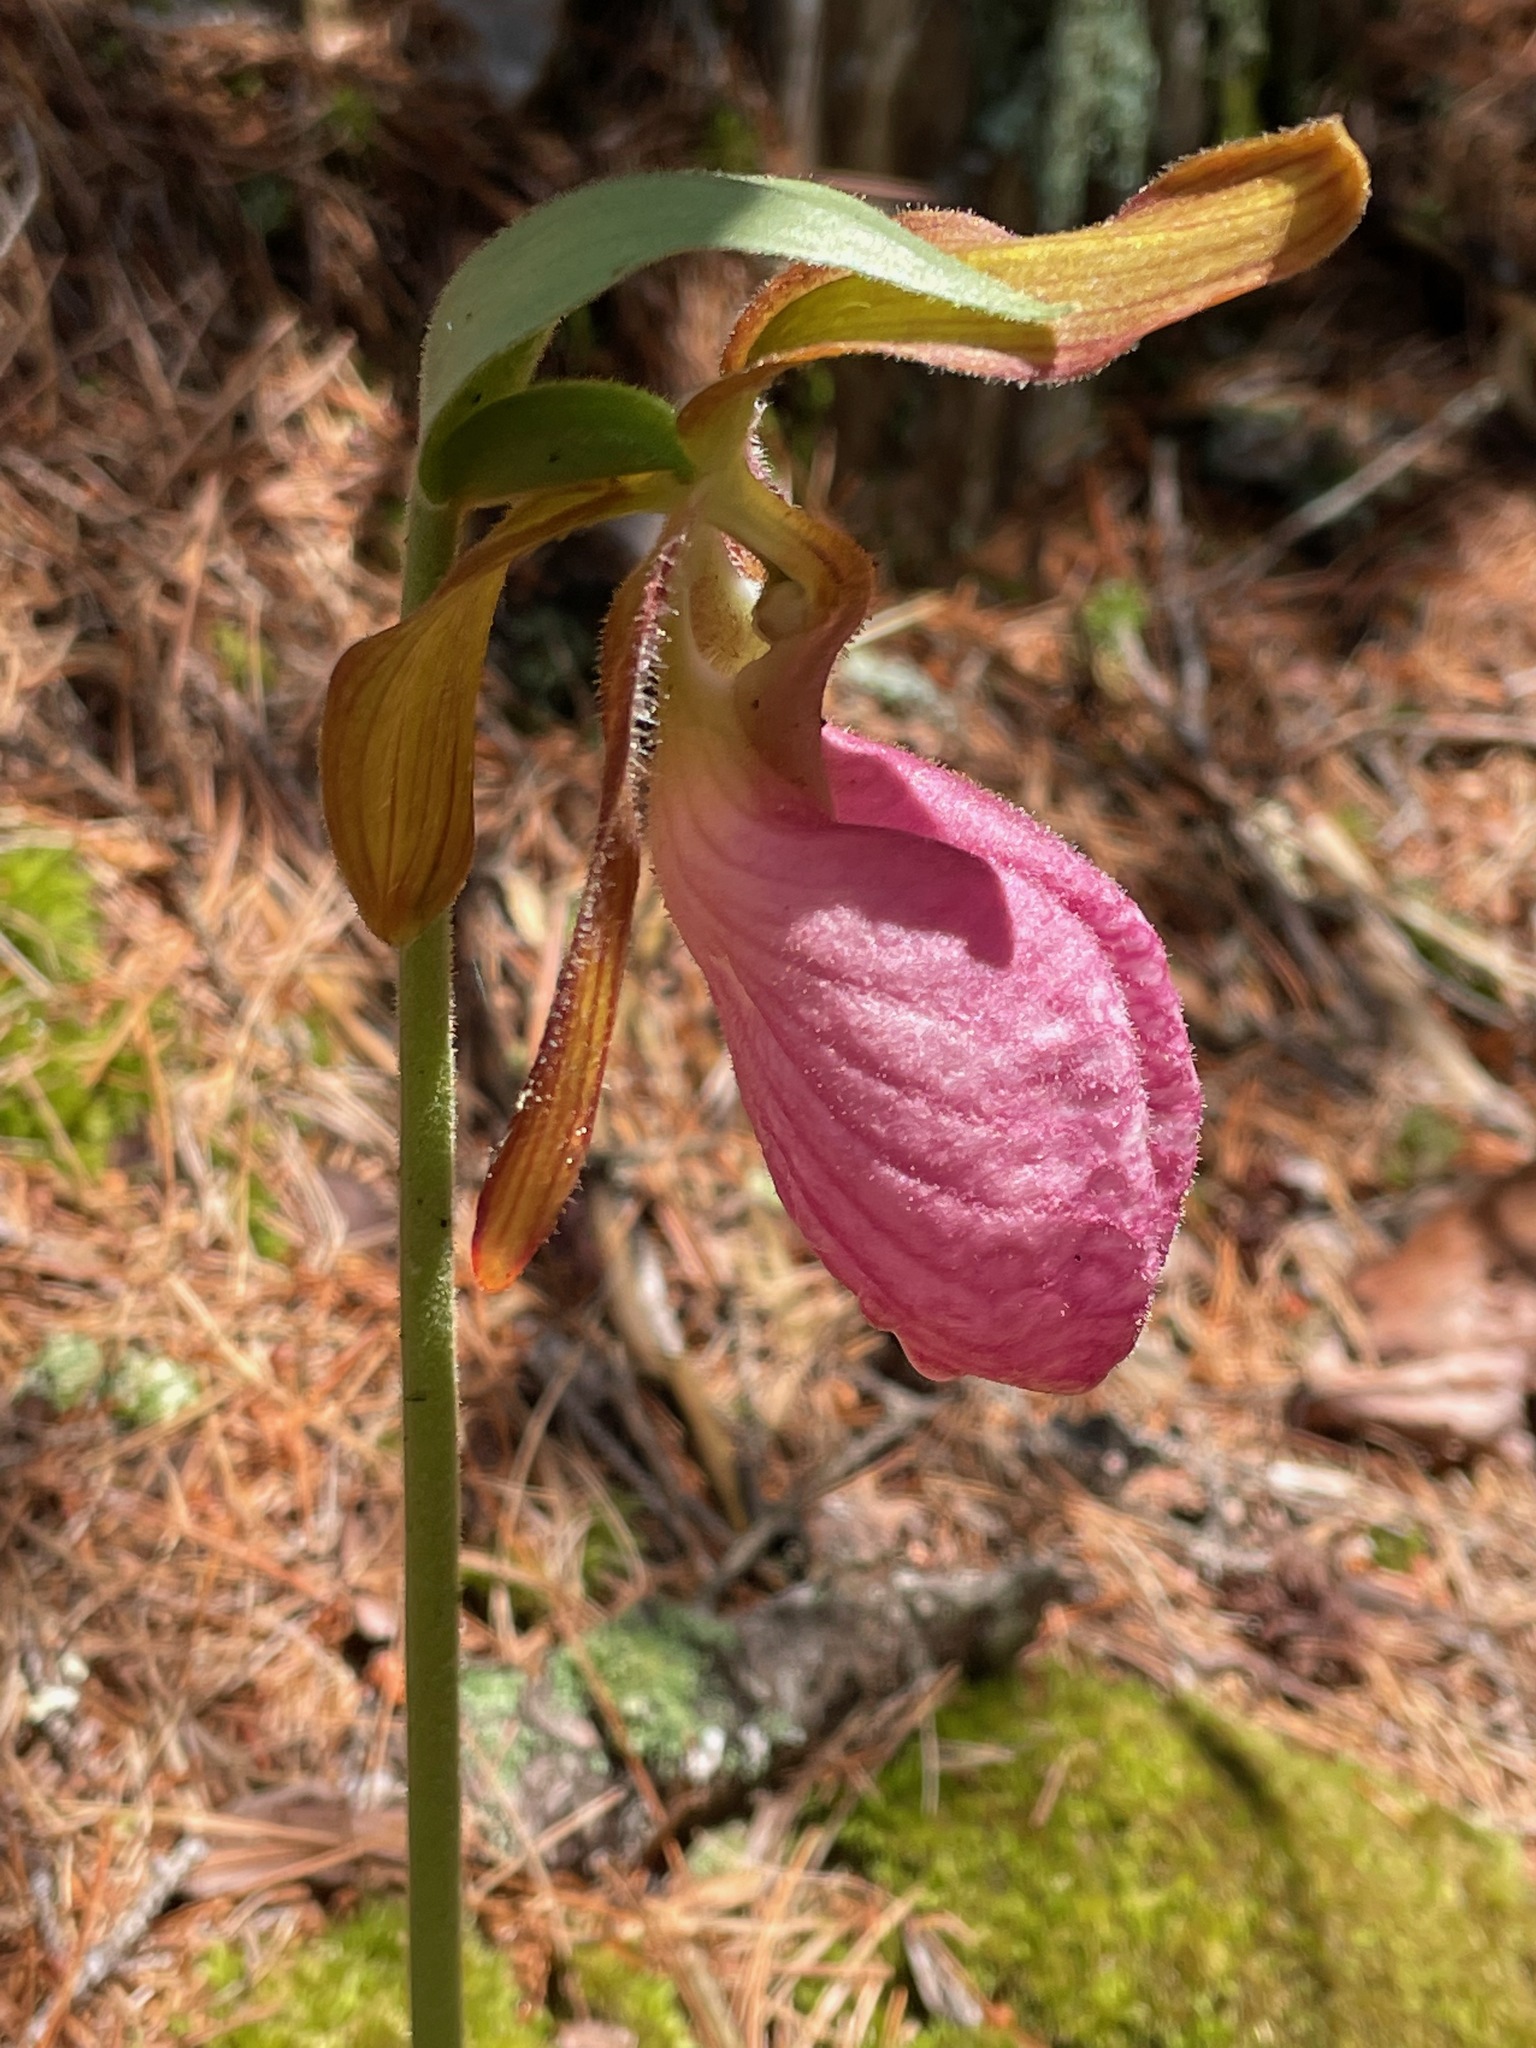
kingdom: Plantae
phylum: Tracheophyta
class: Liliopsida
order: Asparagales
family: Orchidaceae
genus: Cypripedium
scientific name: Cypripedium acaule
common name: Pink lady's-slipper
